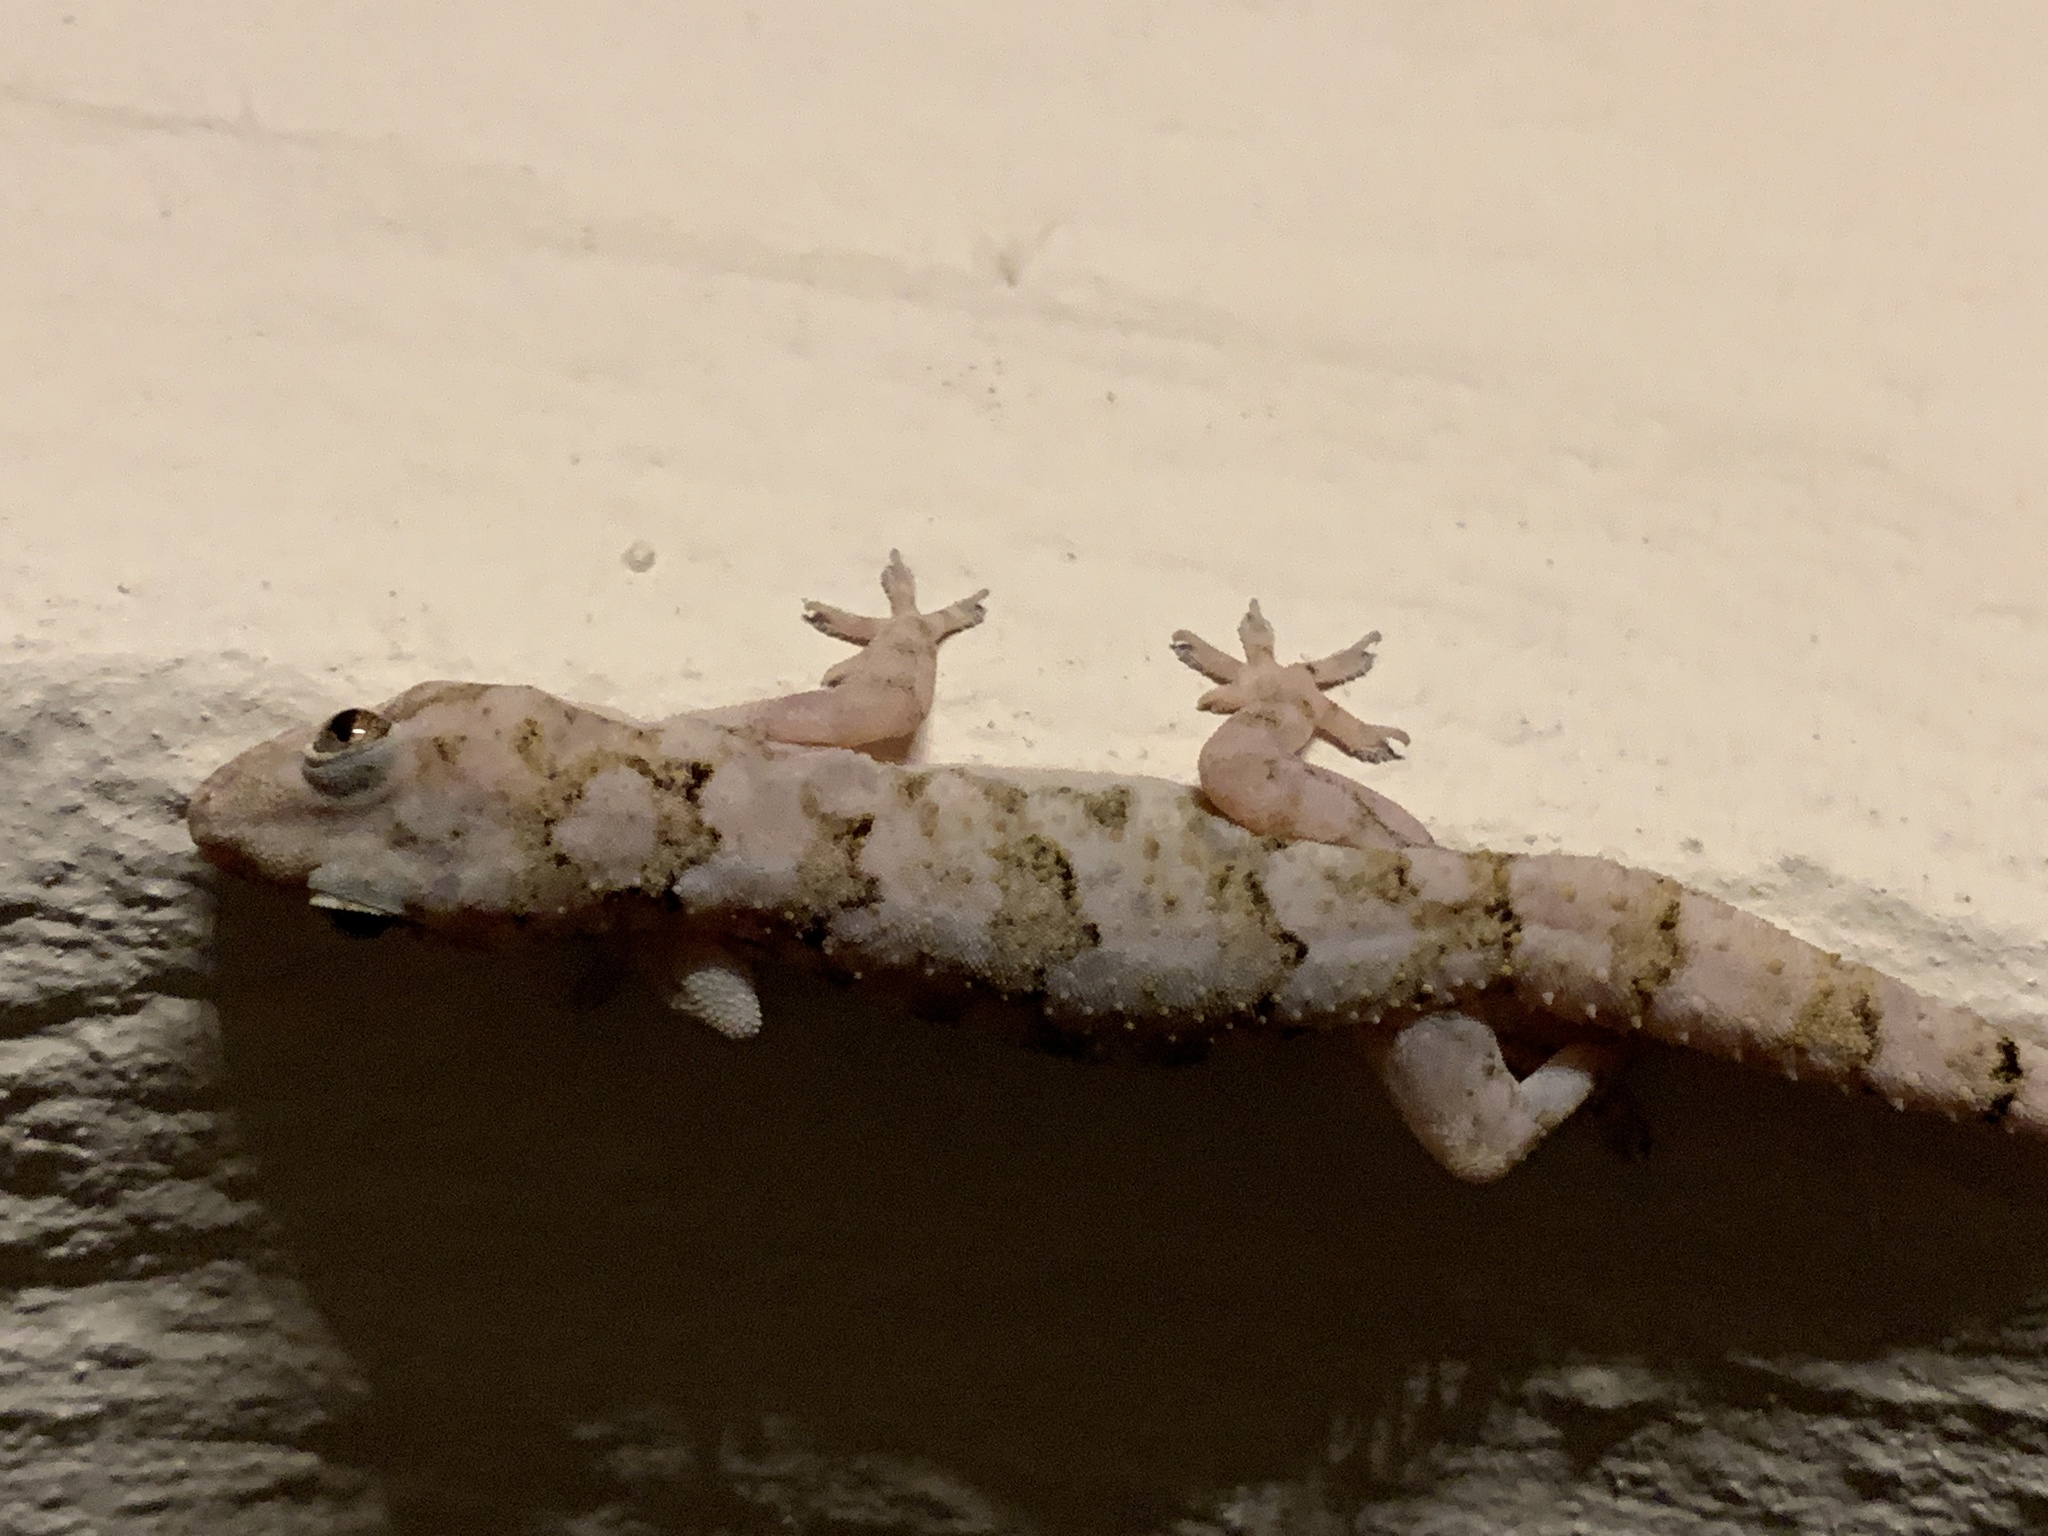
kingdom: Animalia
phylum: Chordata
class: Squamata
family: Gekkonidae
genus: Hemidactylus
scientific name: Hemidactylus mabouia
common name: House gecko
